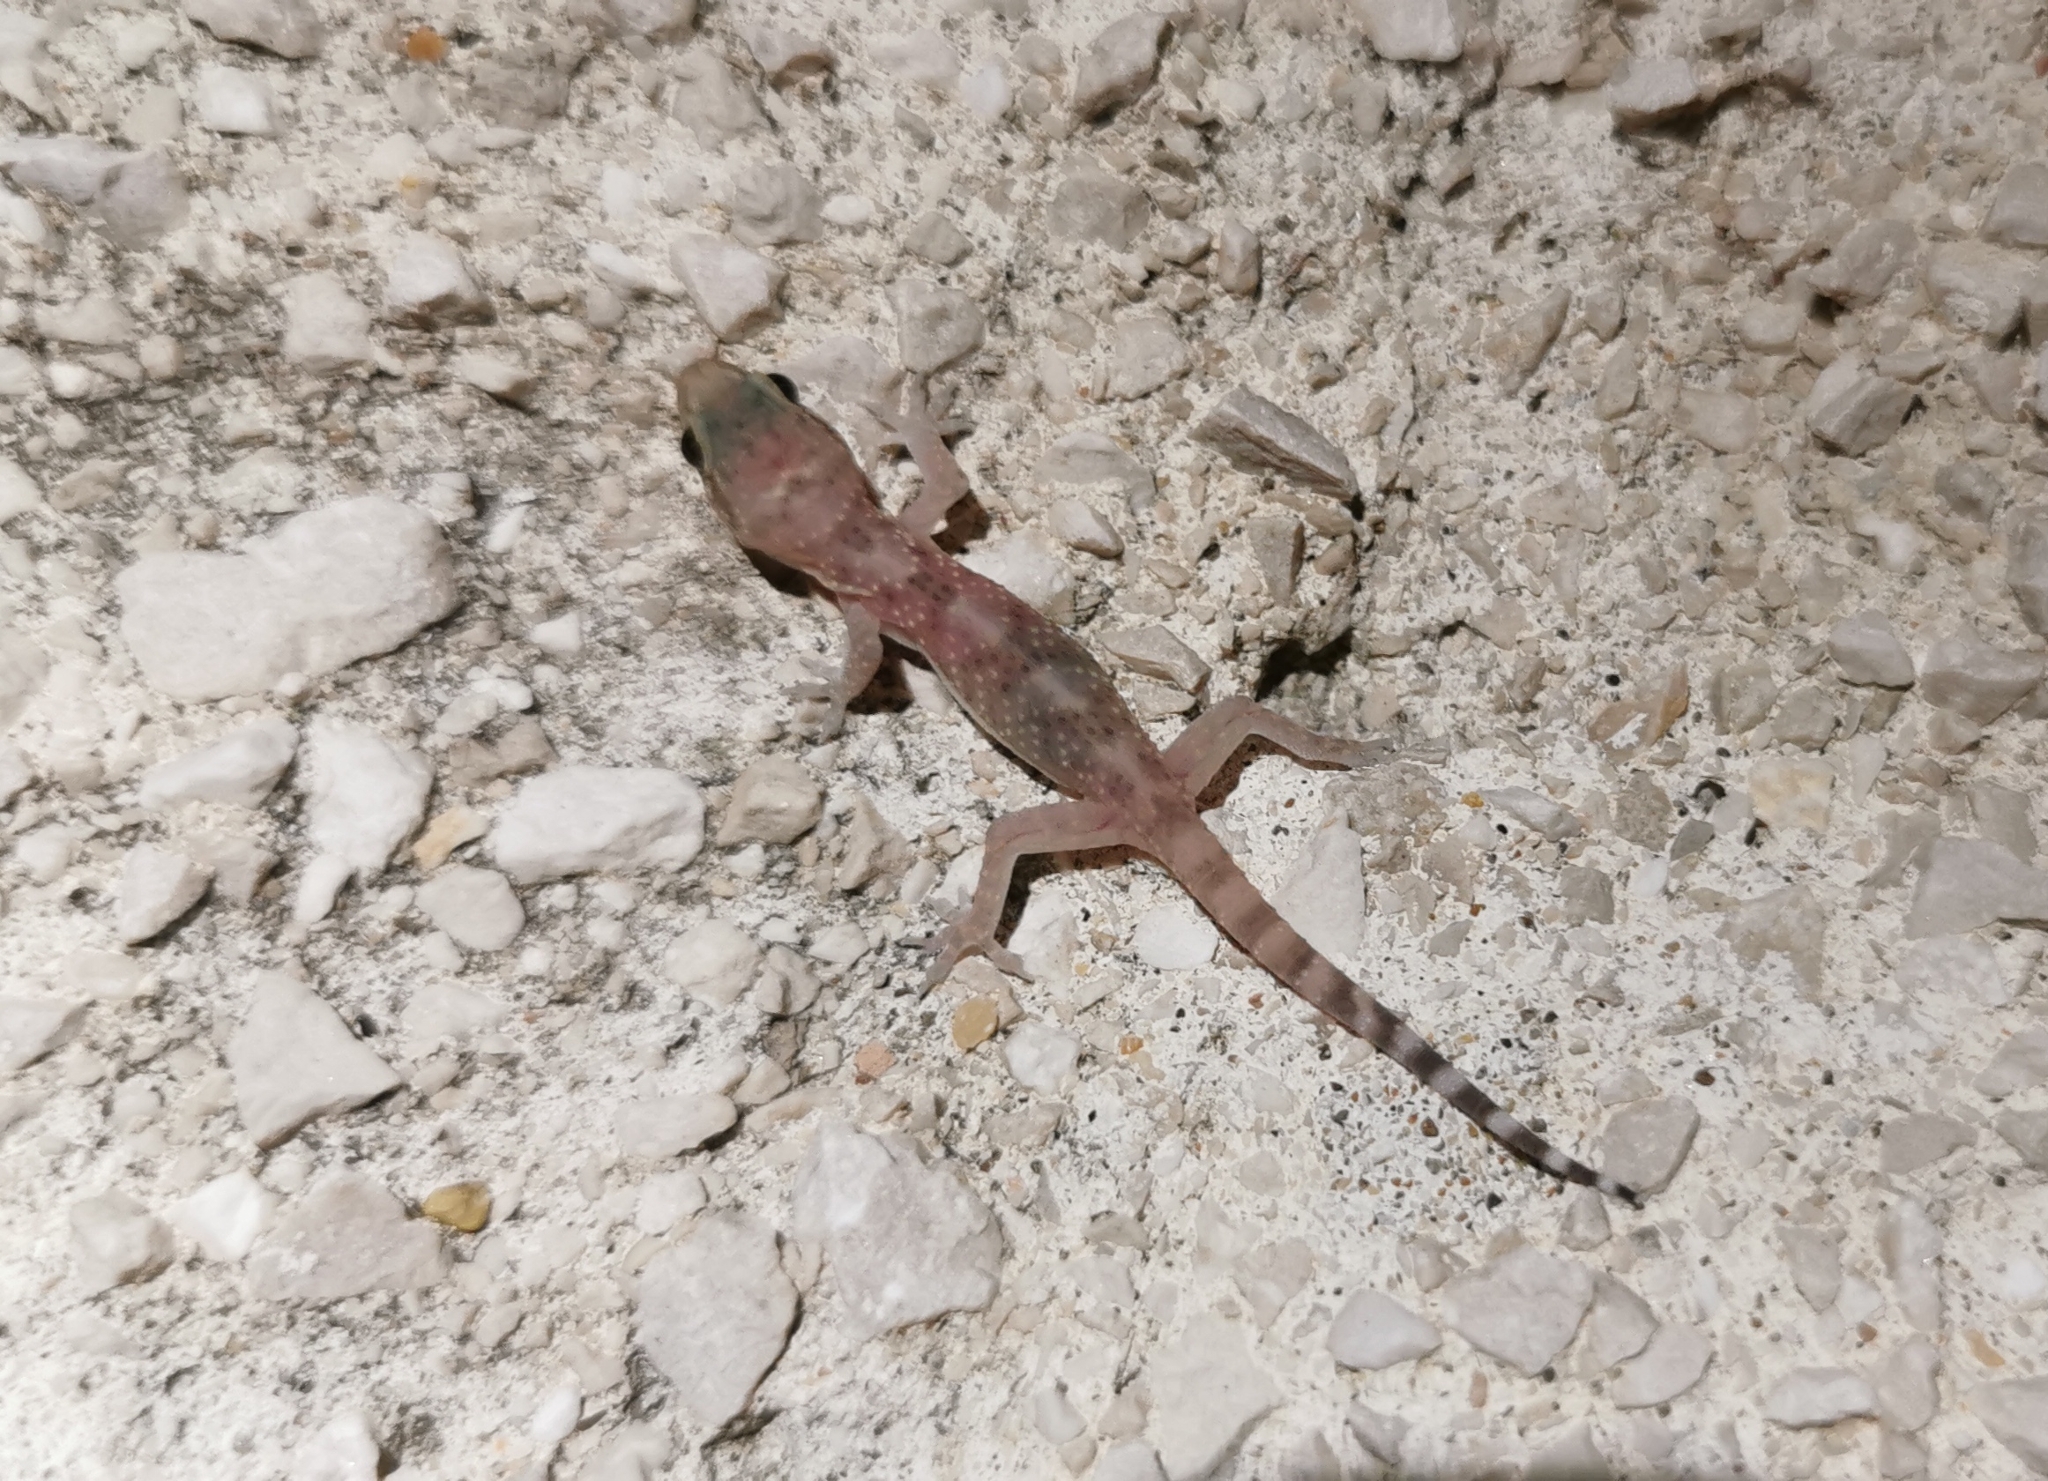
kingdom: Animalia
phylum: Chordata
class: Squamata
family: Gekkonidae
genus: Hemidactylus
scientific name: Hemidactylus turcicus
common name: Turkish gecko
